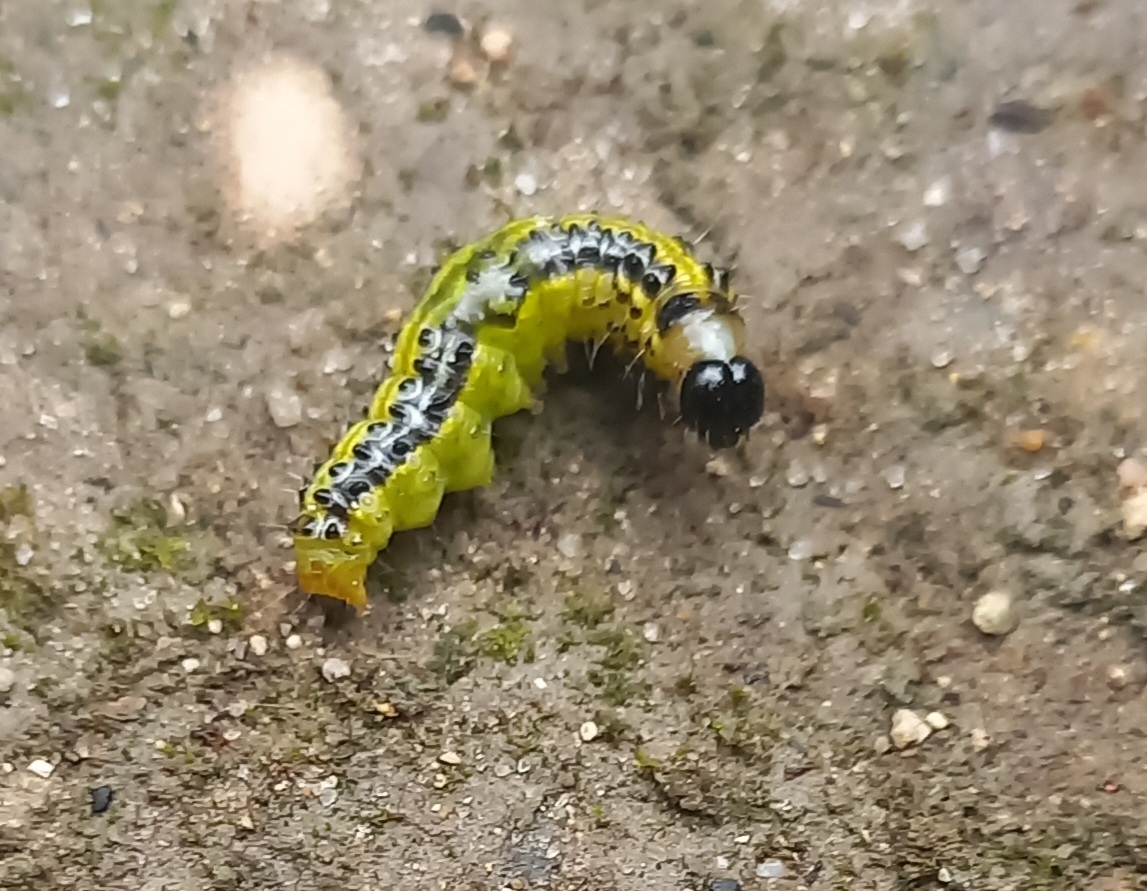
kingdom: Animalia
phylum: Arthropoda
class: Insecta
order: Lepidoptera
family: Crambidae
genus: Cydalima
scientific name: Cydalima perspectalis
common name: Box tree moth
